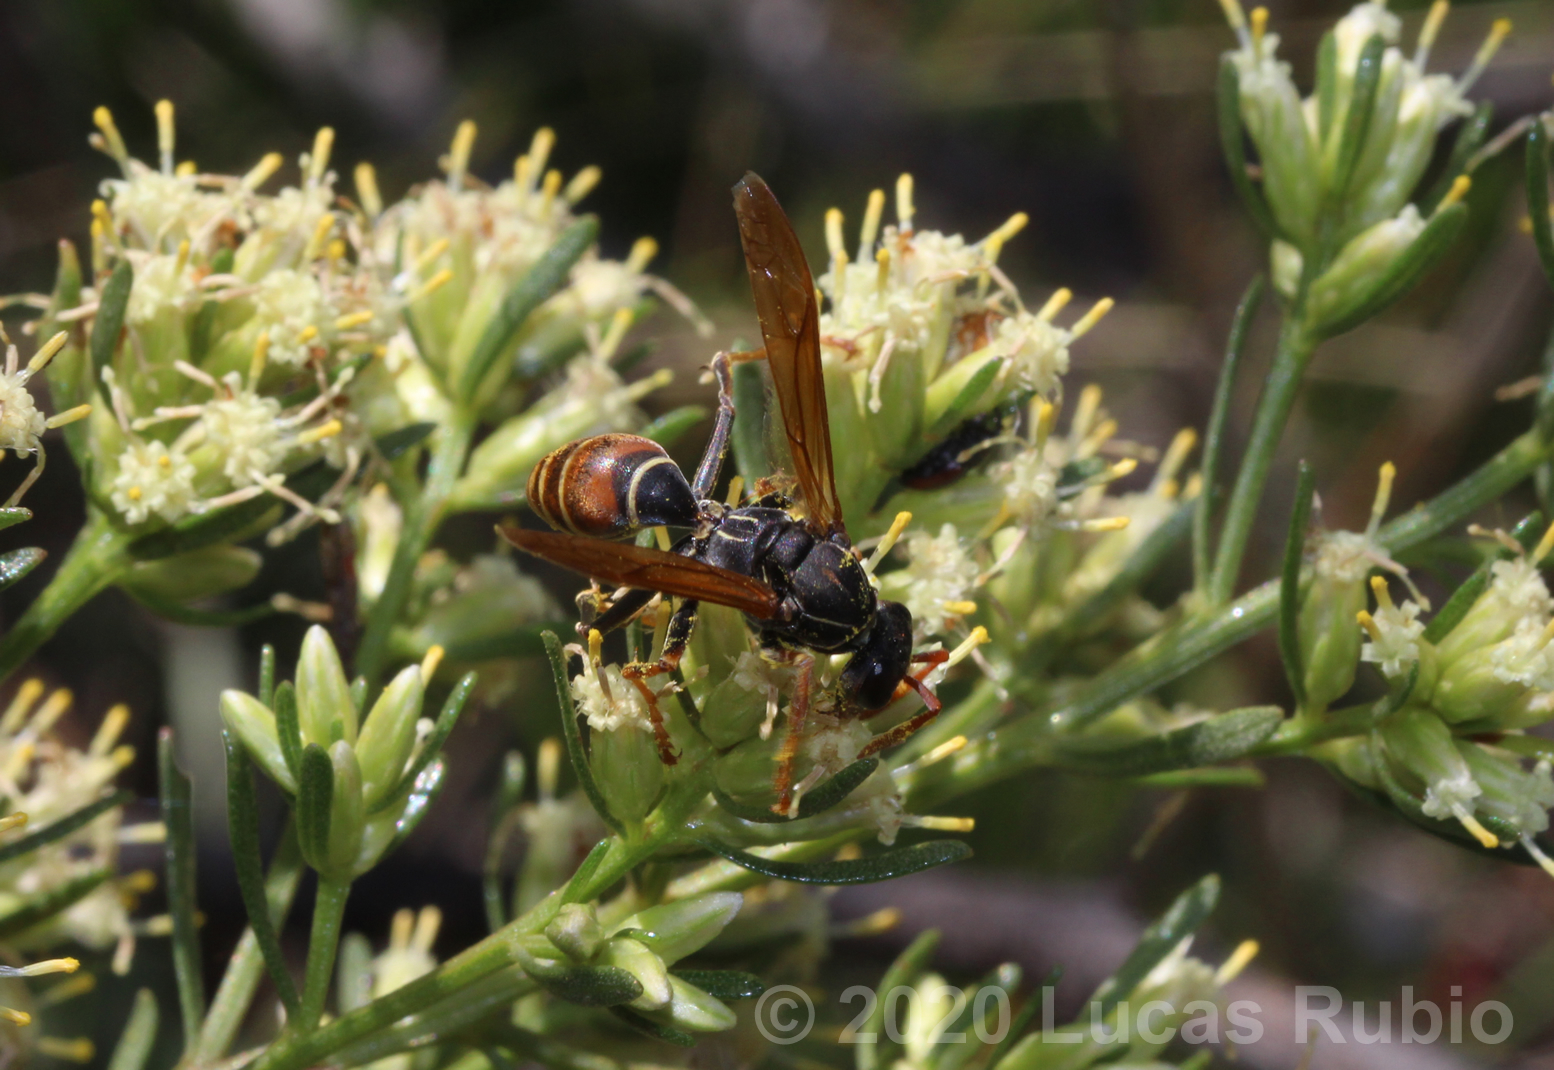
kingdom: Animalia
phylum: Arthropoda
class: Insecta
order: Hymenoptera
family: Eumenidae
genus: Polistes
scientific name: Polistes billardieri
